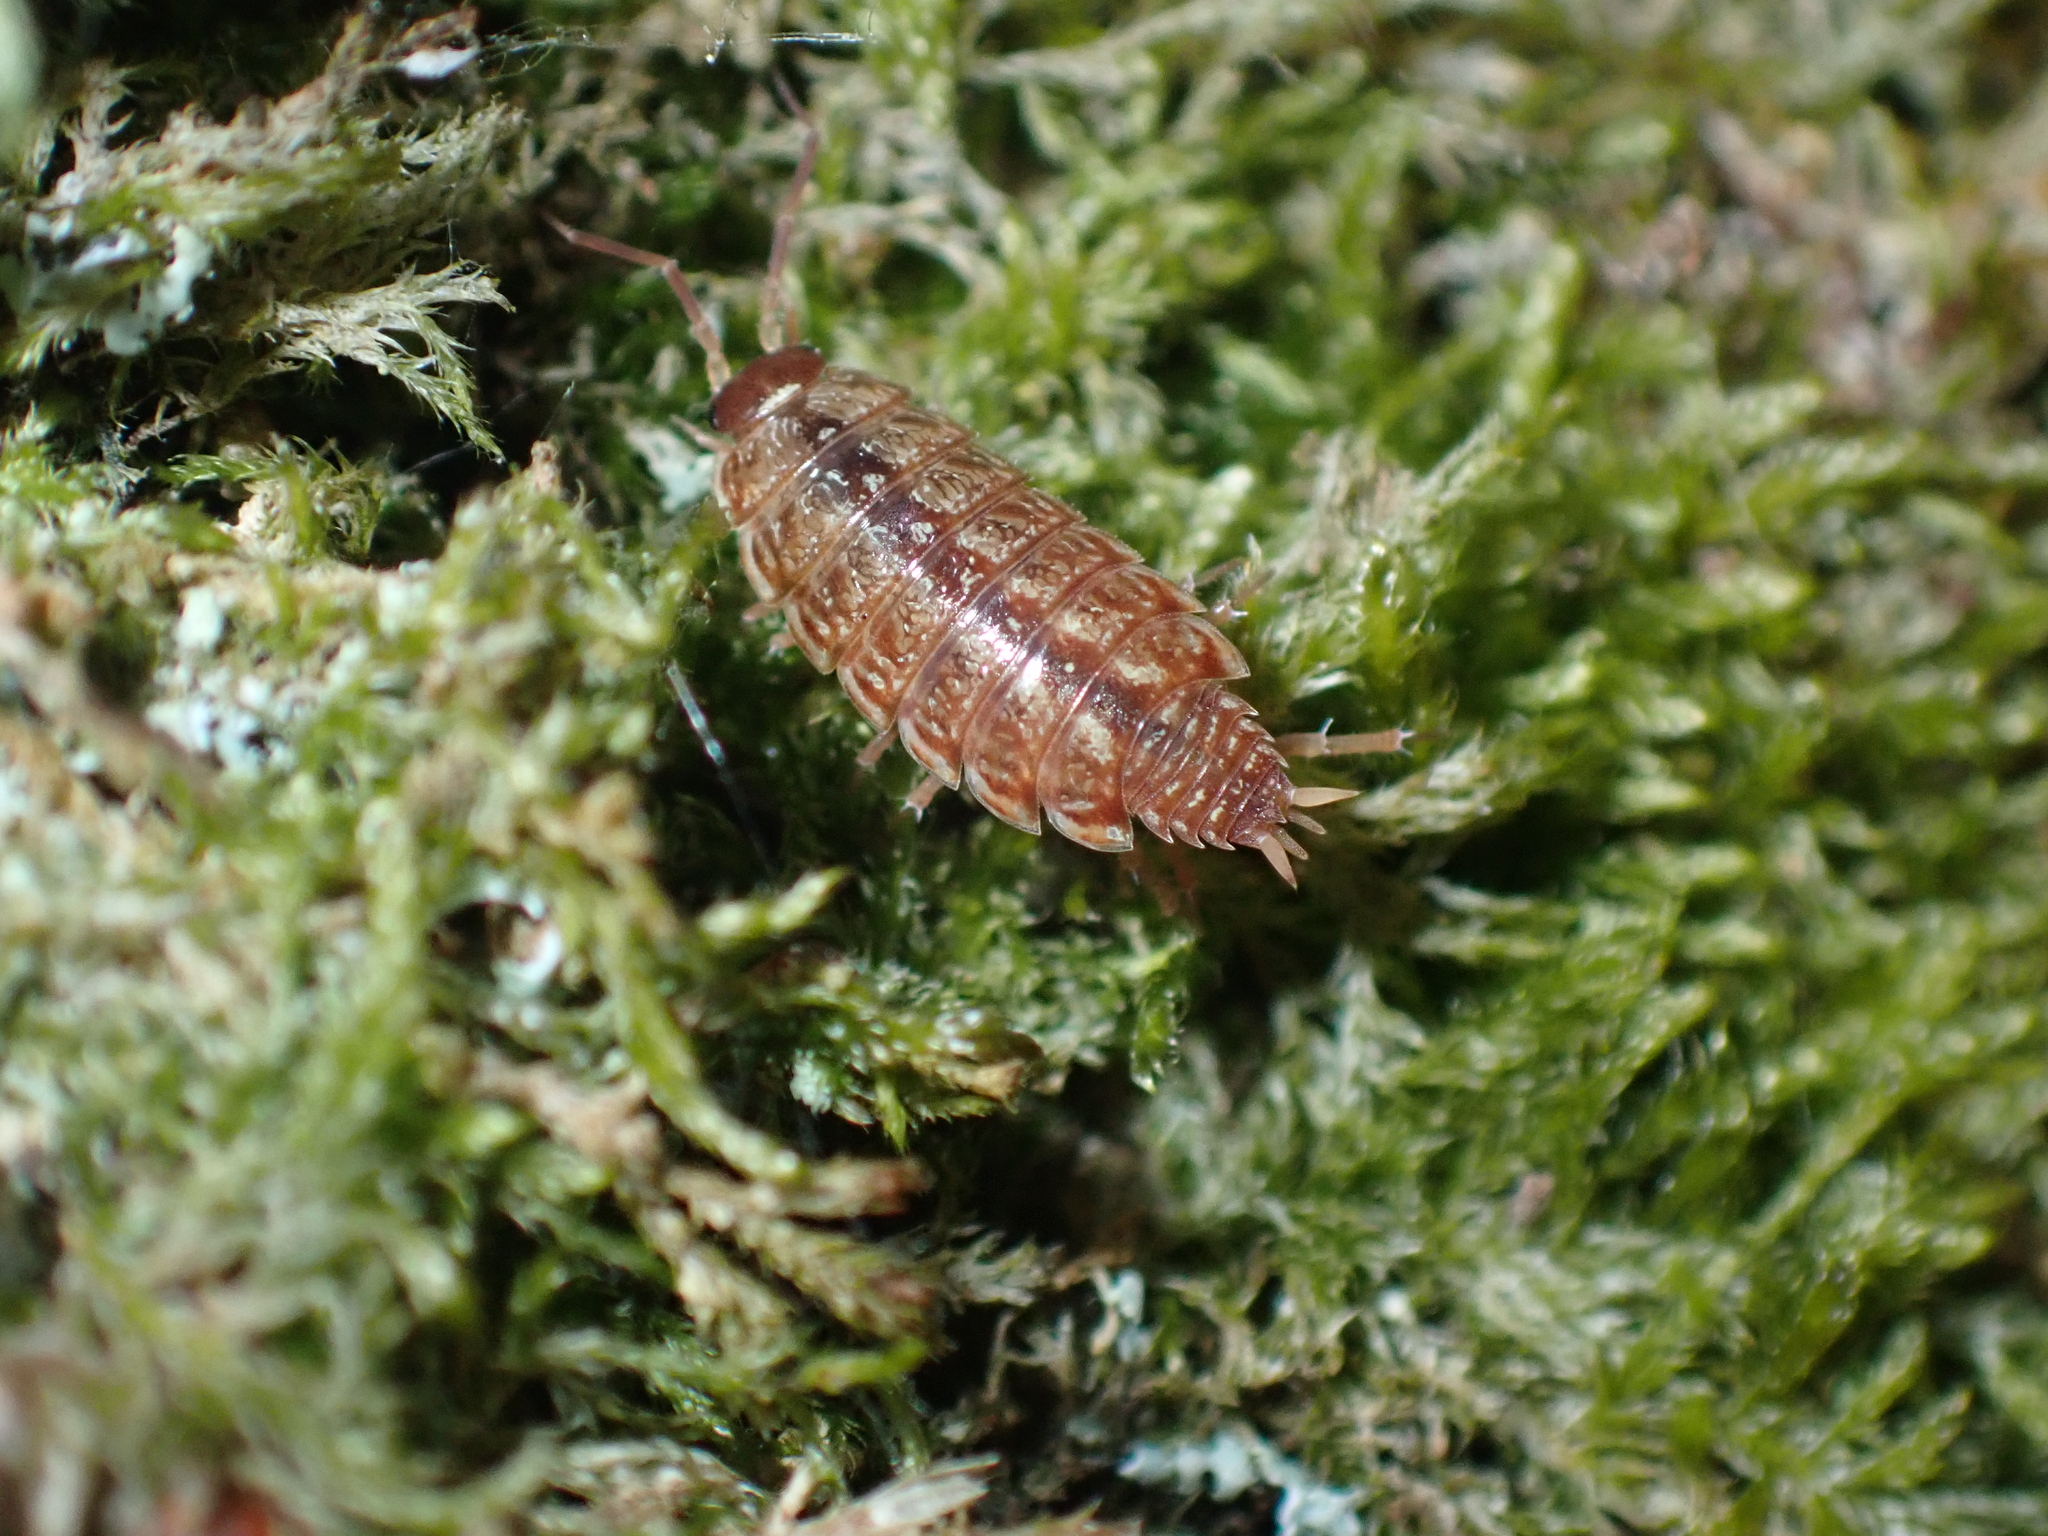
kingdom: Animalia
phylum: Arthropoda
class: Malacostraca
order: Isopoda
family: Philosciidae
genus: Philoscia
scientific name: Philoscia muscorum
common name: Common striped woodlouse
